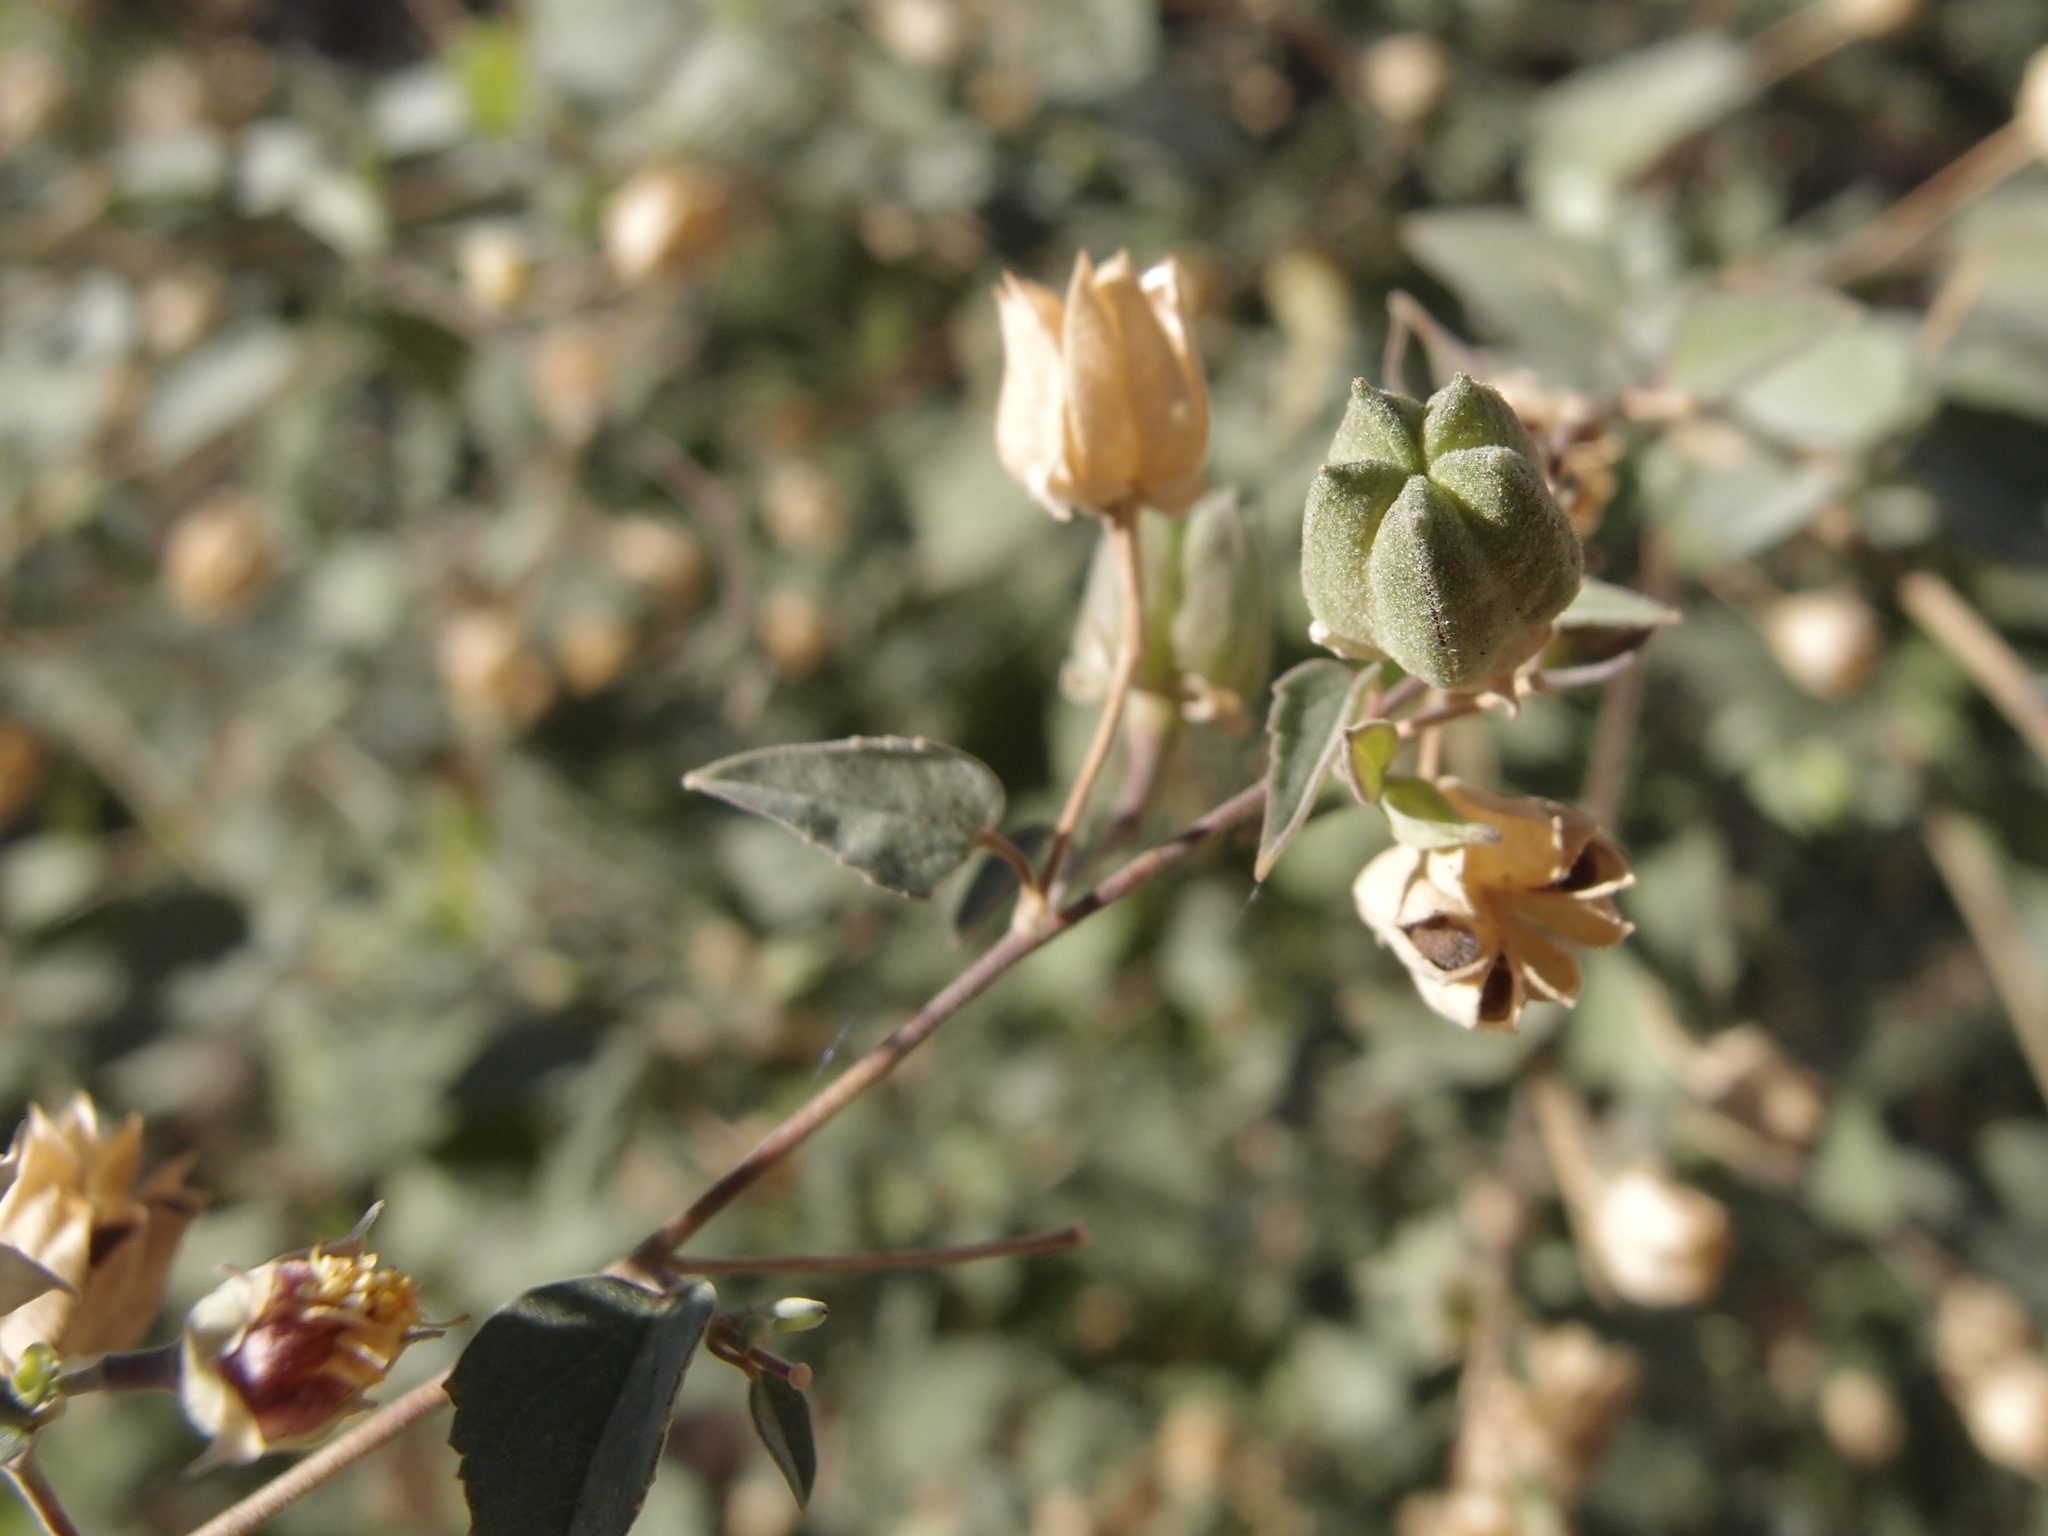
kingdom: Plantae
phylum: Tracheophyta
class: Magnoliopsida
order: Malvales
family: Malvaceae
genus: Abutilon
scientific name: Abutilon incanum
